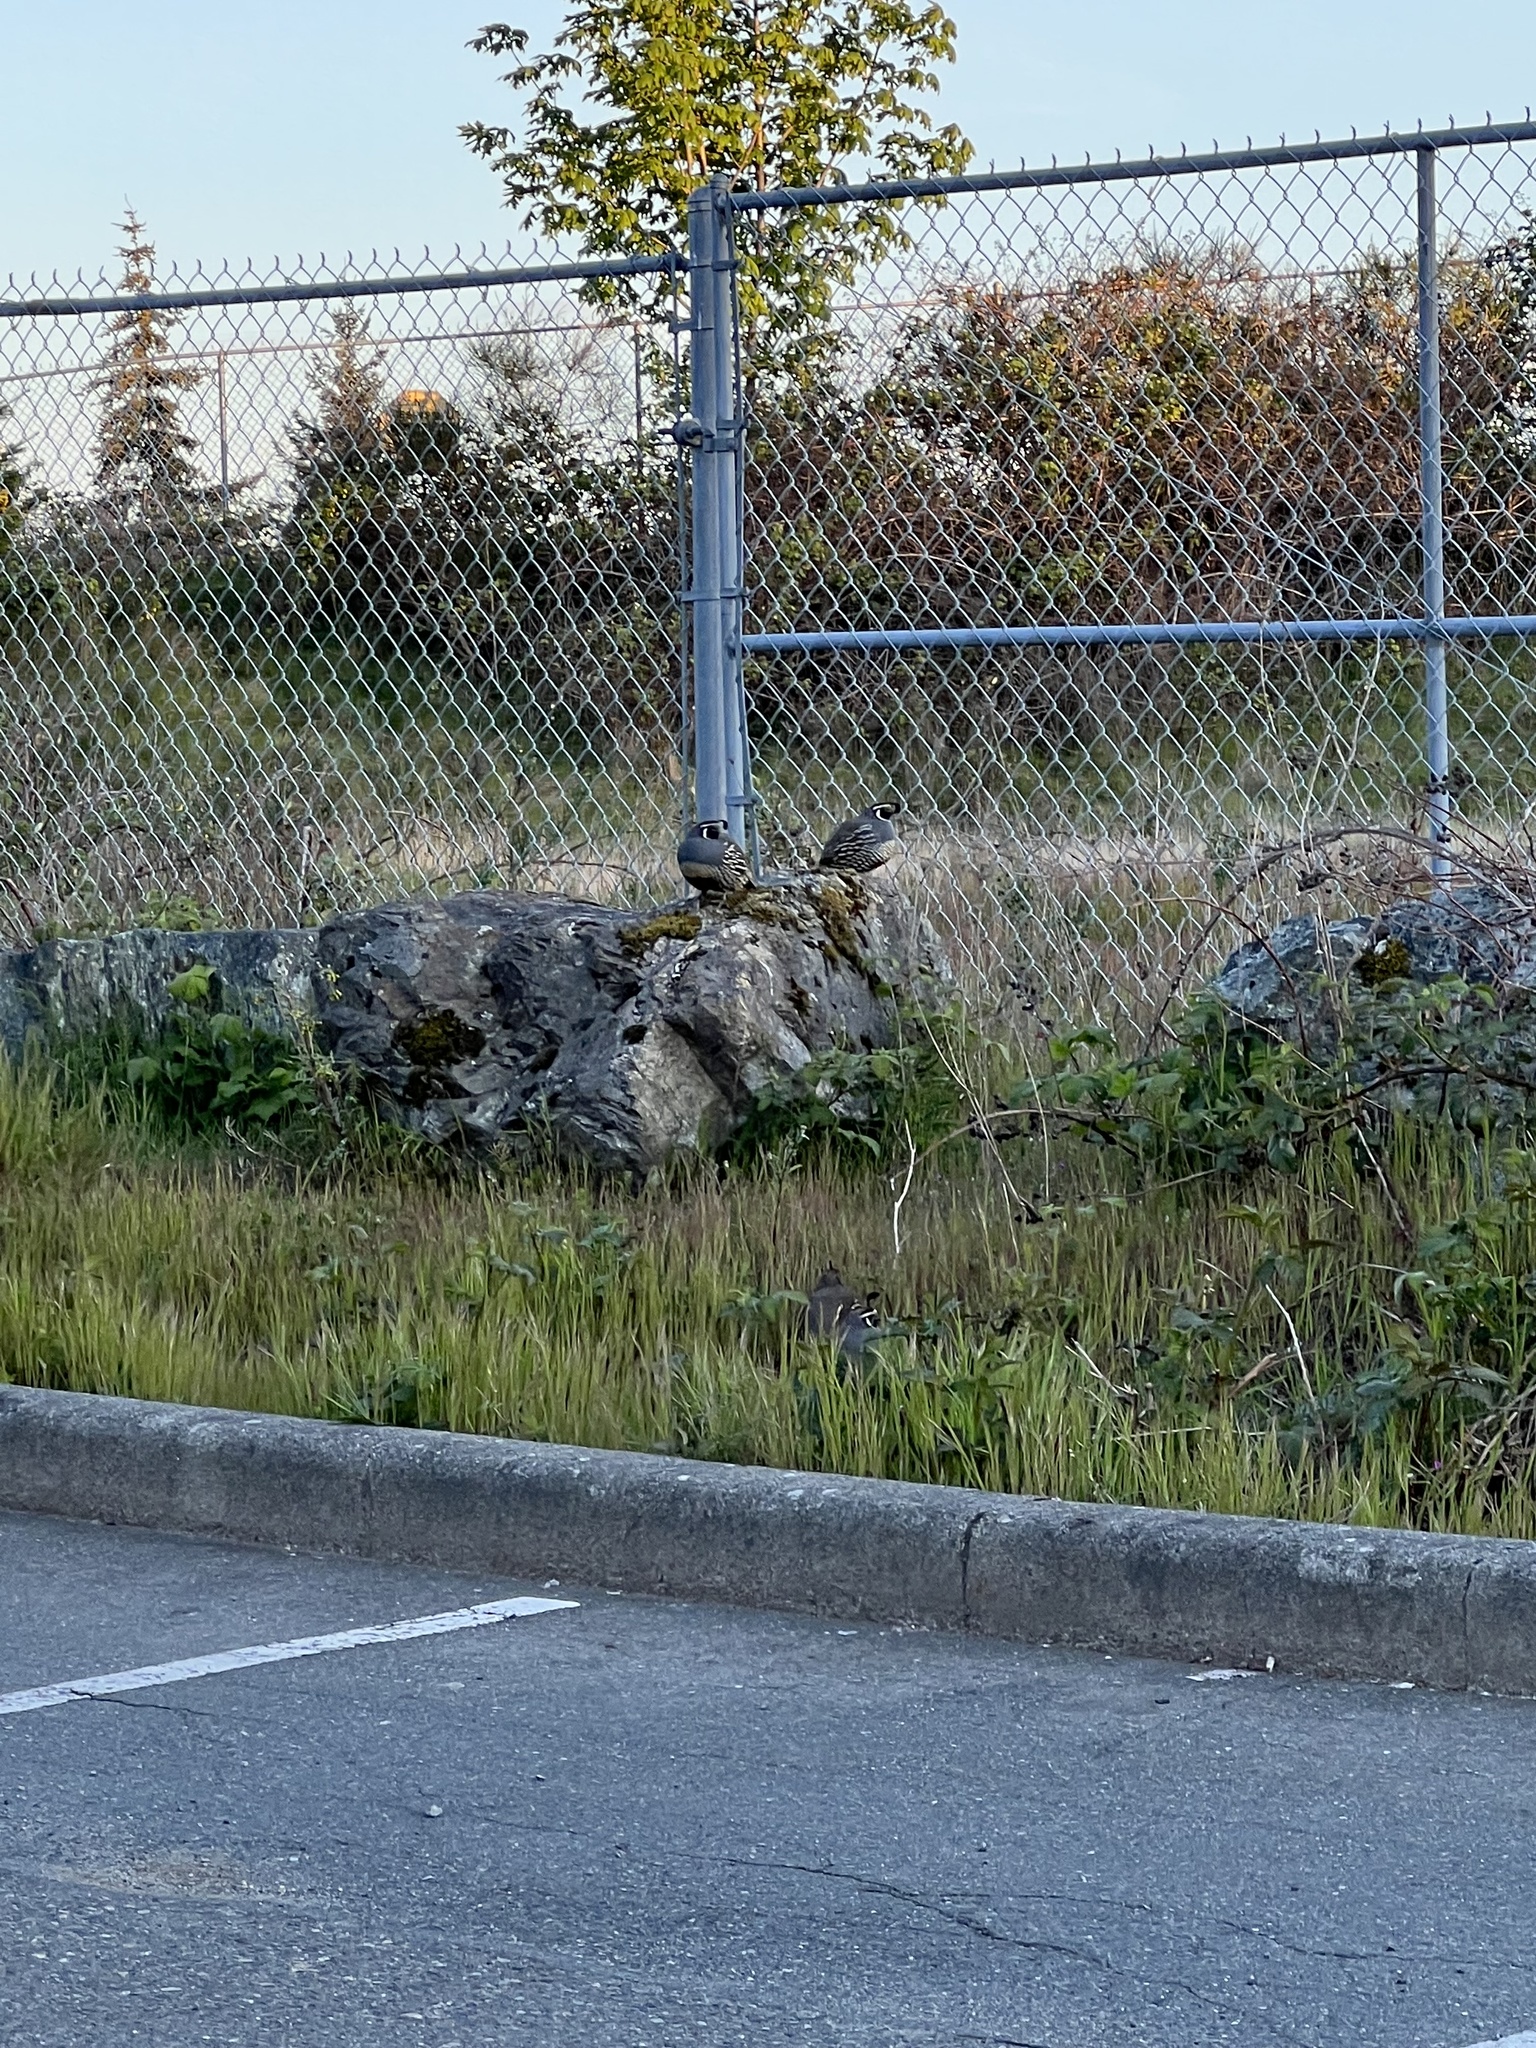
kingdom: Animalia
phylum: Chordata
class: Aves
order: Galliformes
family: Odontophoridae
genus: Callipepla
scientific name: Callipepla californica
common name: California quail
